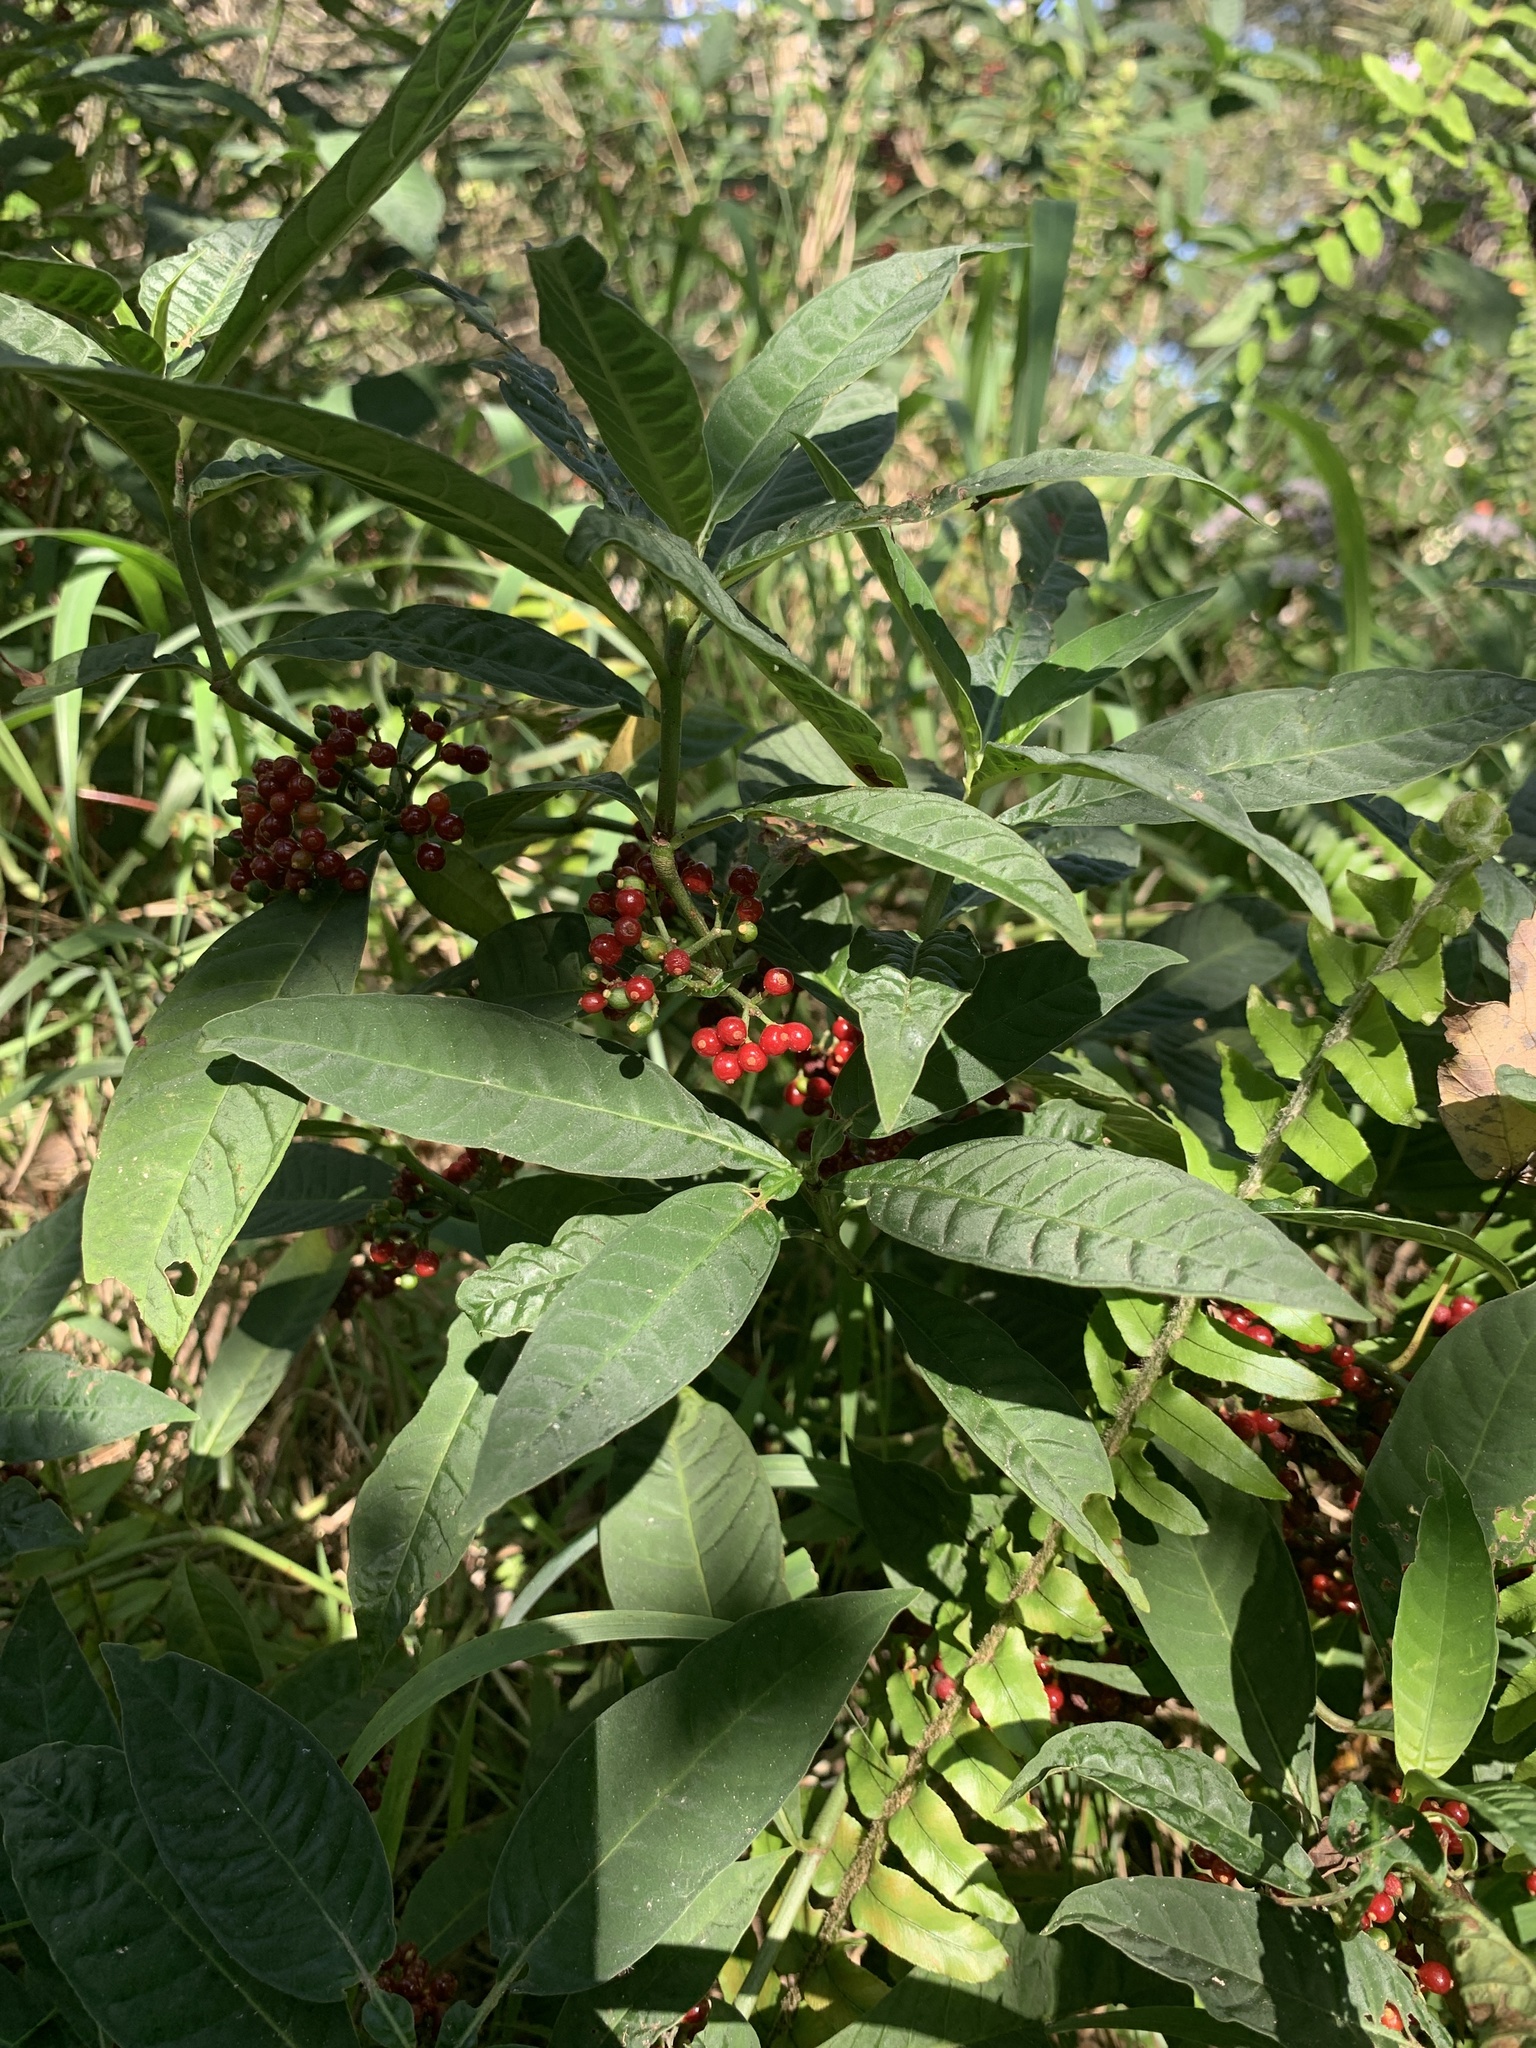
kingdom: Plantae
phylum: Tracheophyta
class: Magnoliopsida
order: Gentianales
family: Rubiaceae
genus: Psychotria
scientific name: Psychotria tenuifolia
